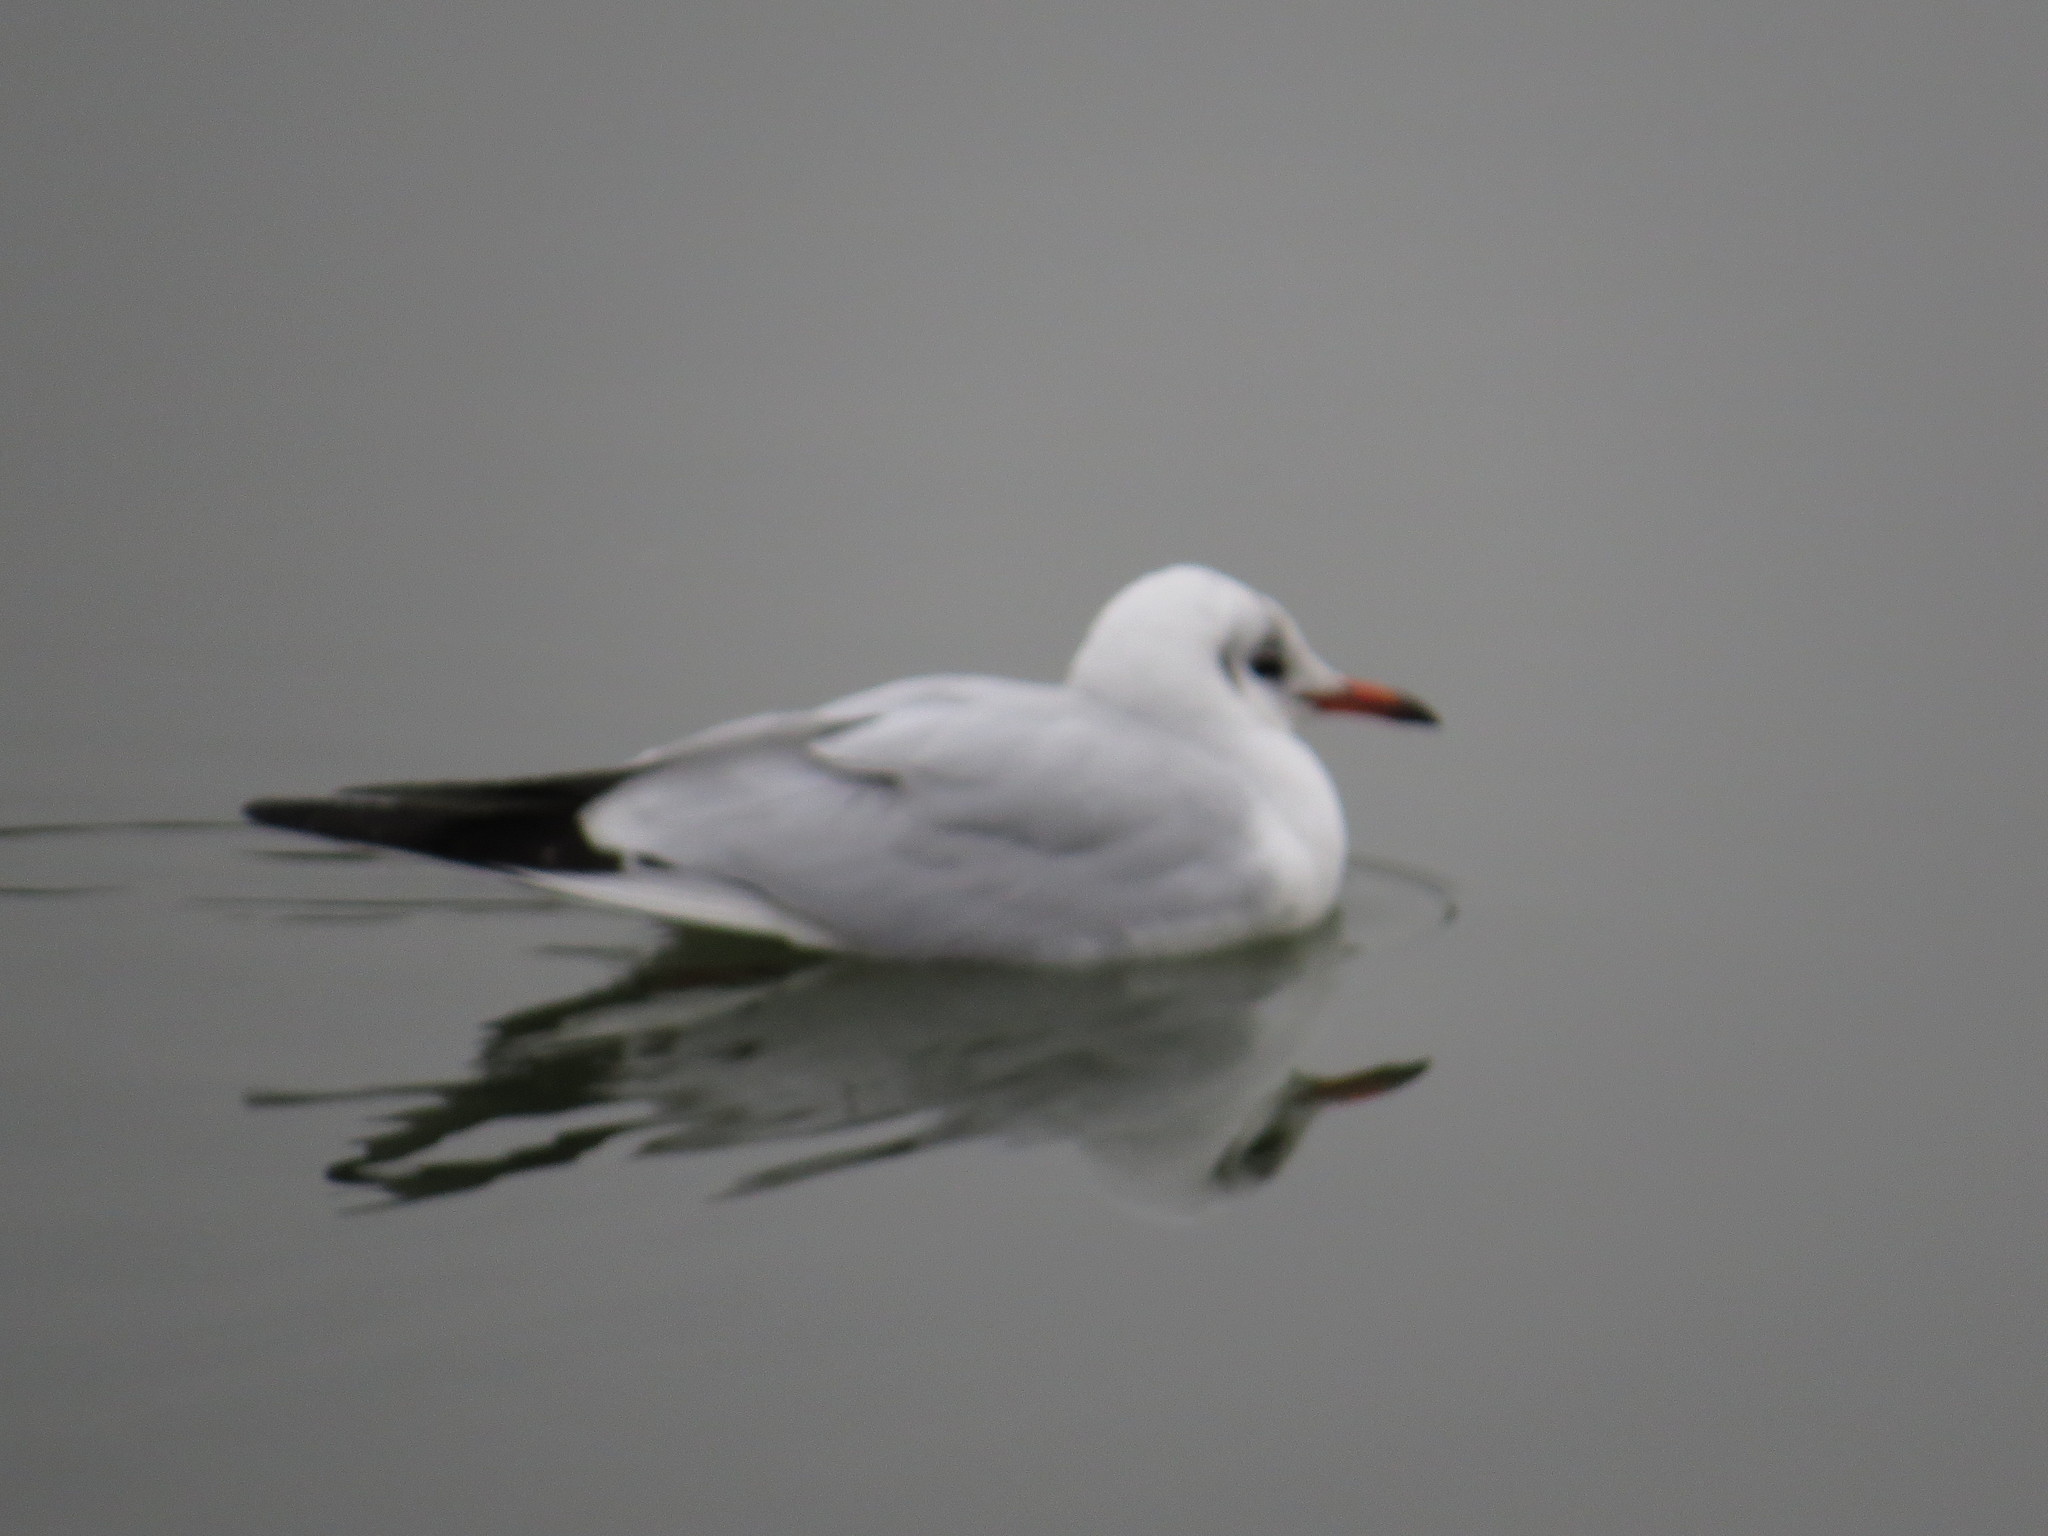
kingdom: Animalia
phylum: Chordata
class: Aves
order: Charadriiformes
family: Laridae
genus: Chroicocephalus
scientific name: Chroicocephalus ridibundus
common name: Black-headed gull
